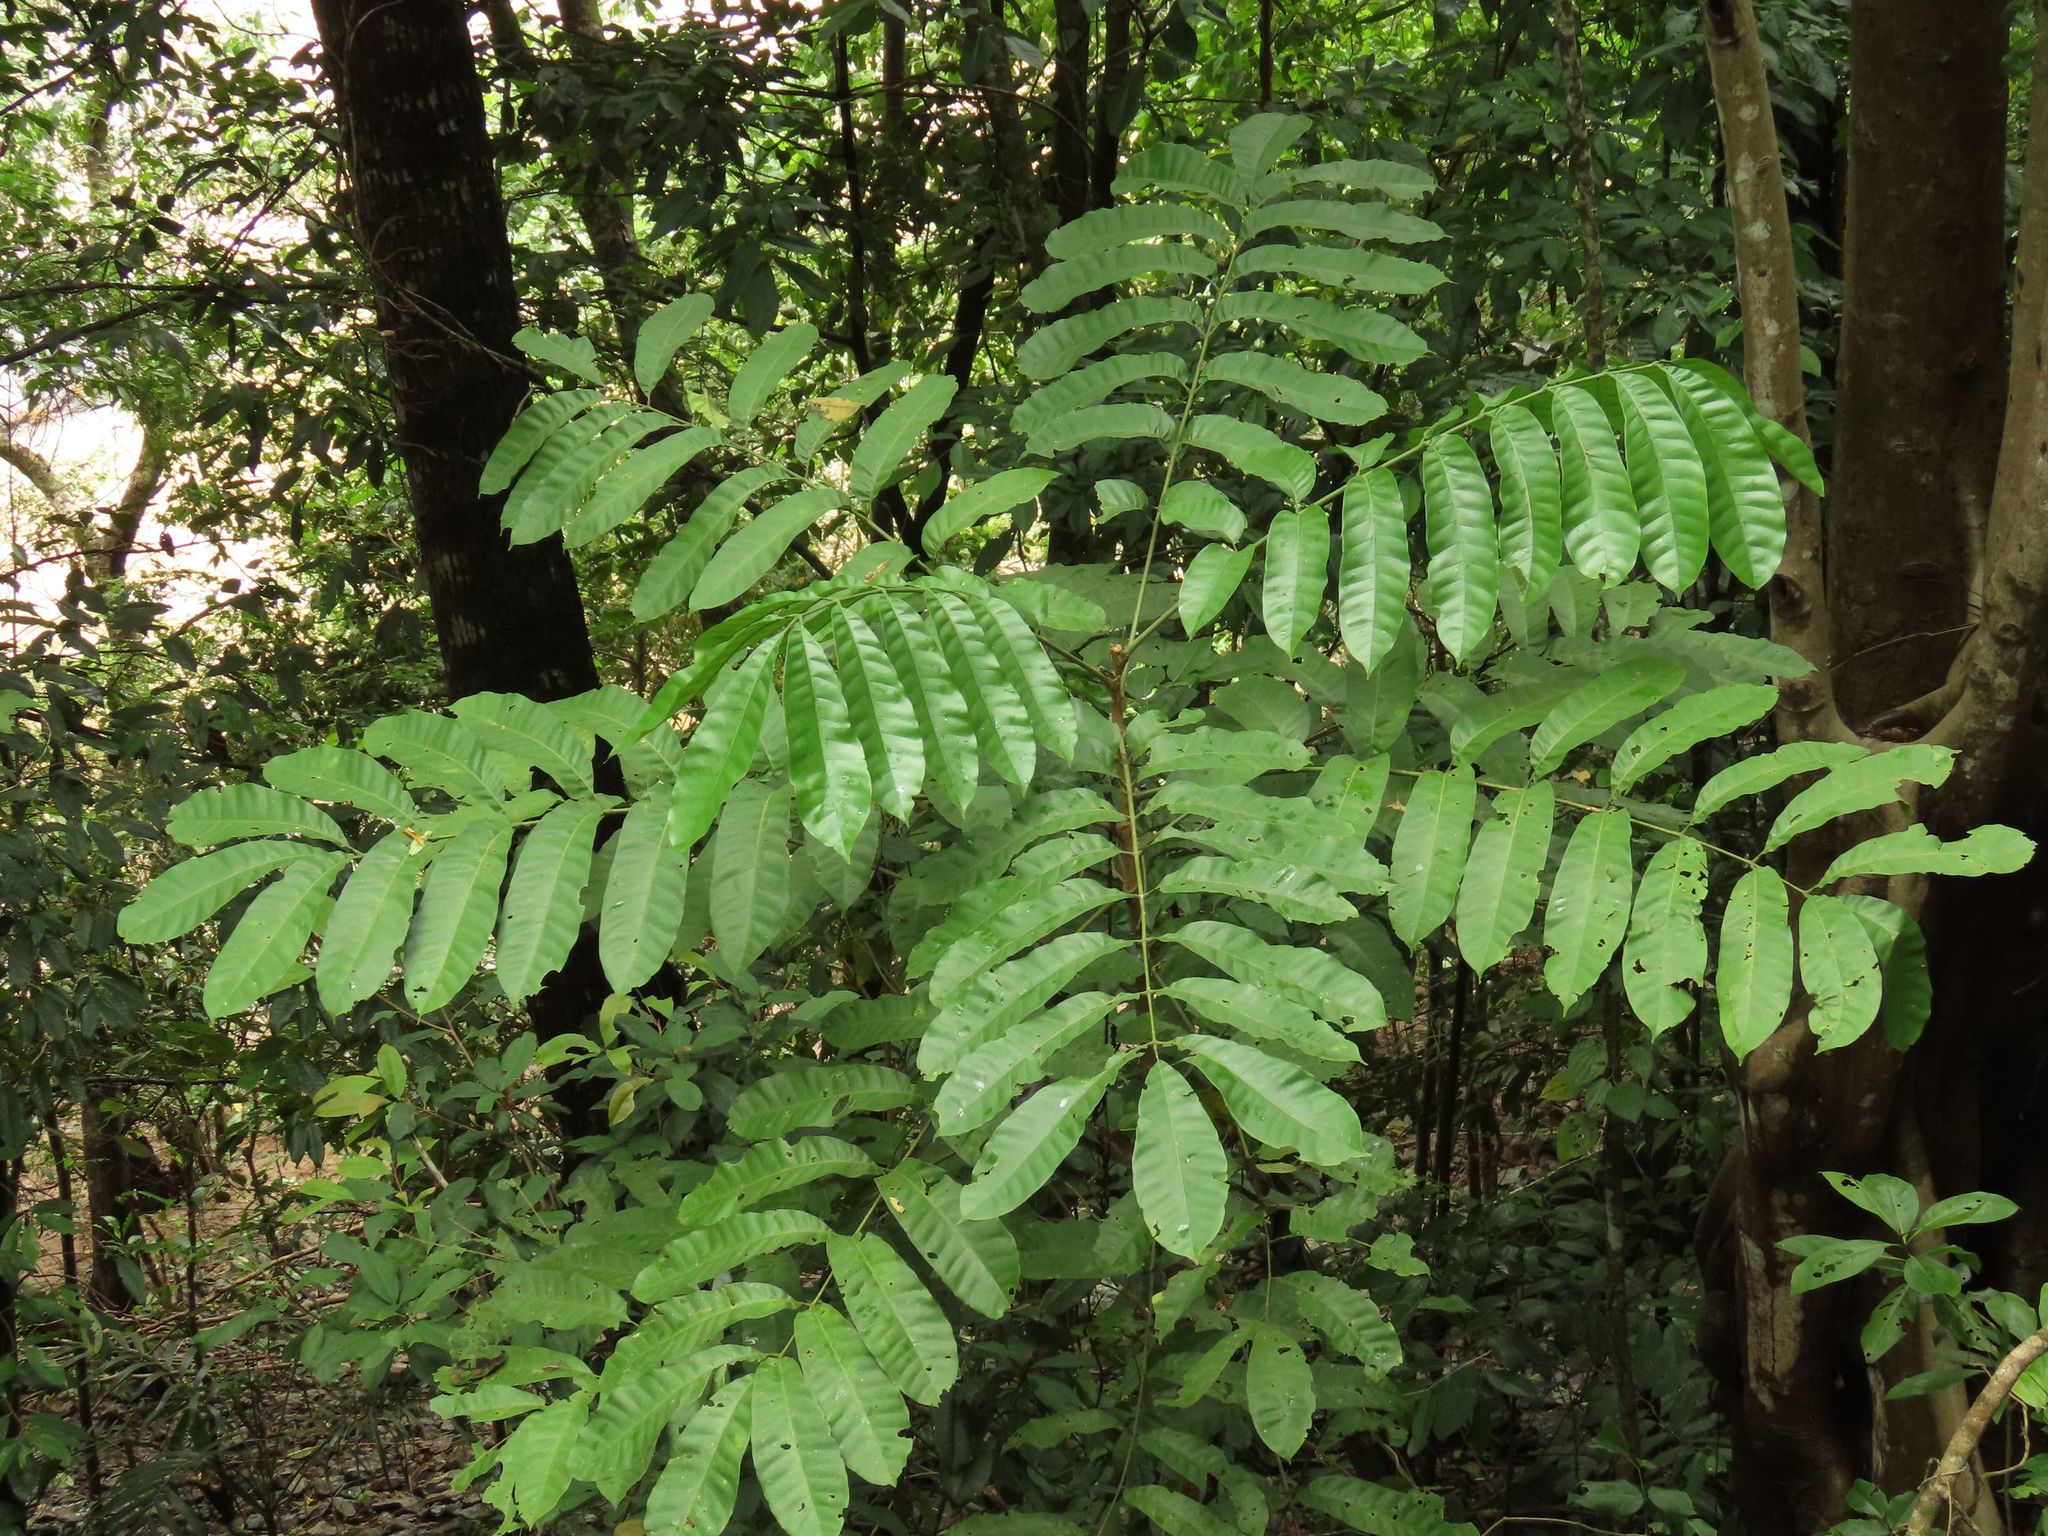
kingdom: Plantae
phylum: Tracheophyta
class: Magnoliopsida
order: Sapindales
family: Meliaceae
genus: Didymocheton
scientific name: Didymocheton pettigrewianus
